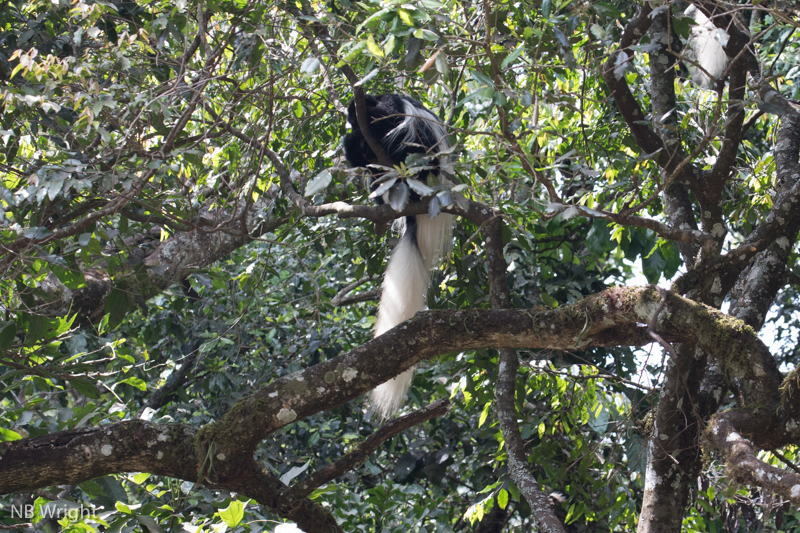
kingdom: Animalia
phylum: Chordata
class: Mammalia
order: Primates
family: Cercopithecidae
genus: Colobus
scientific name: Colobus caudatus
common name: Mount kilimanjaro guereza
